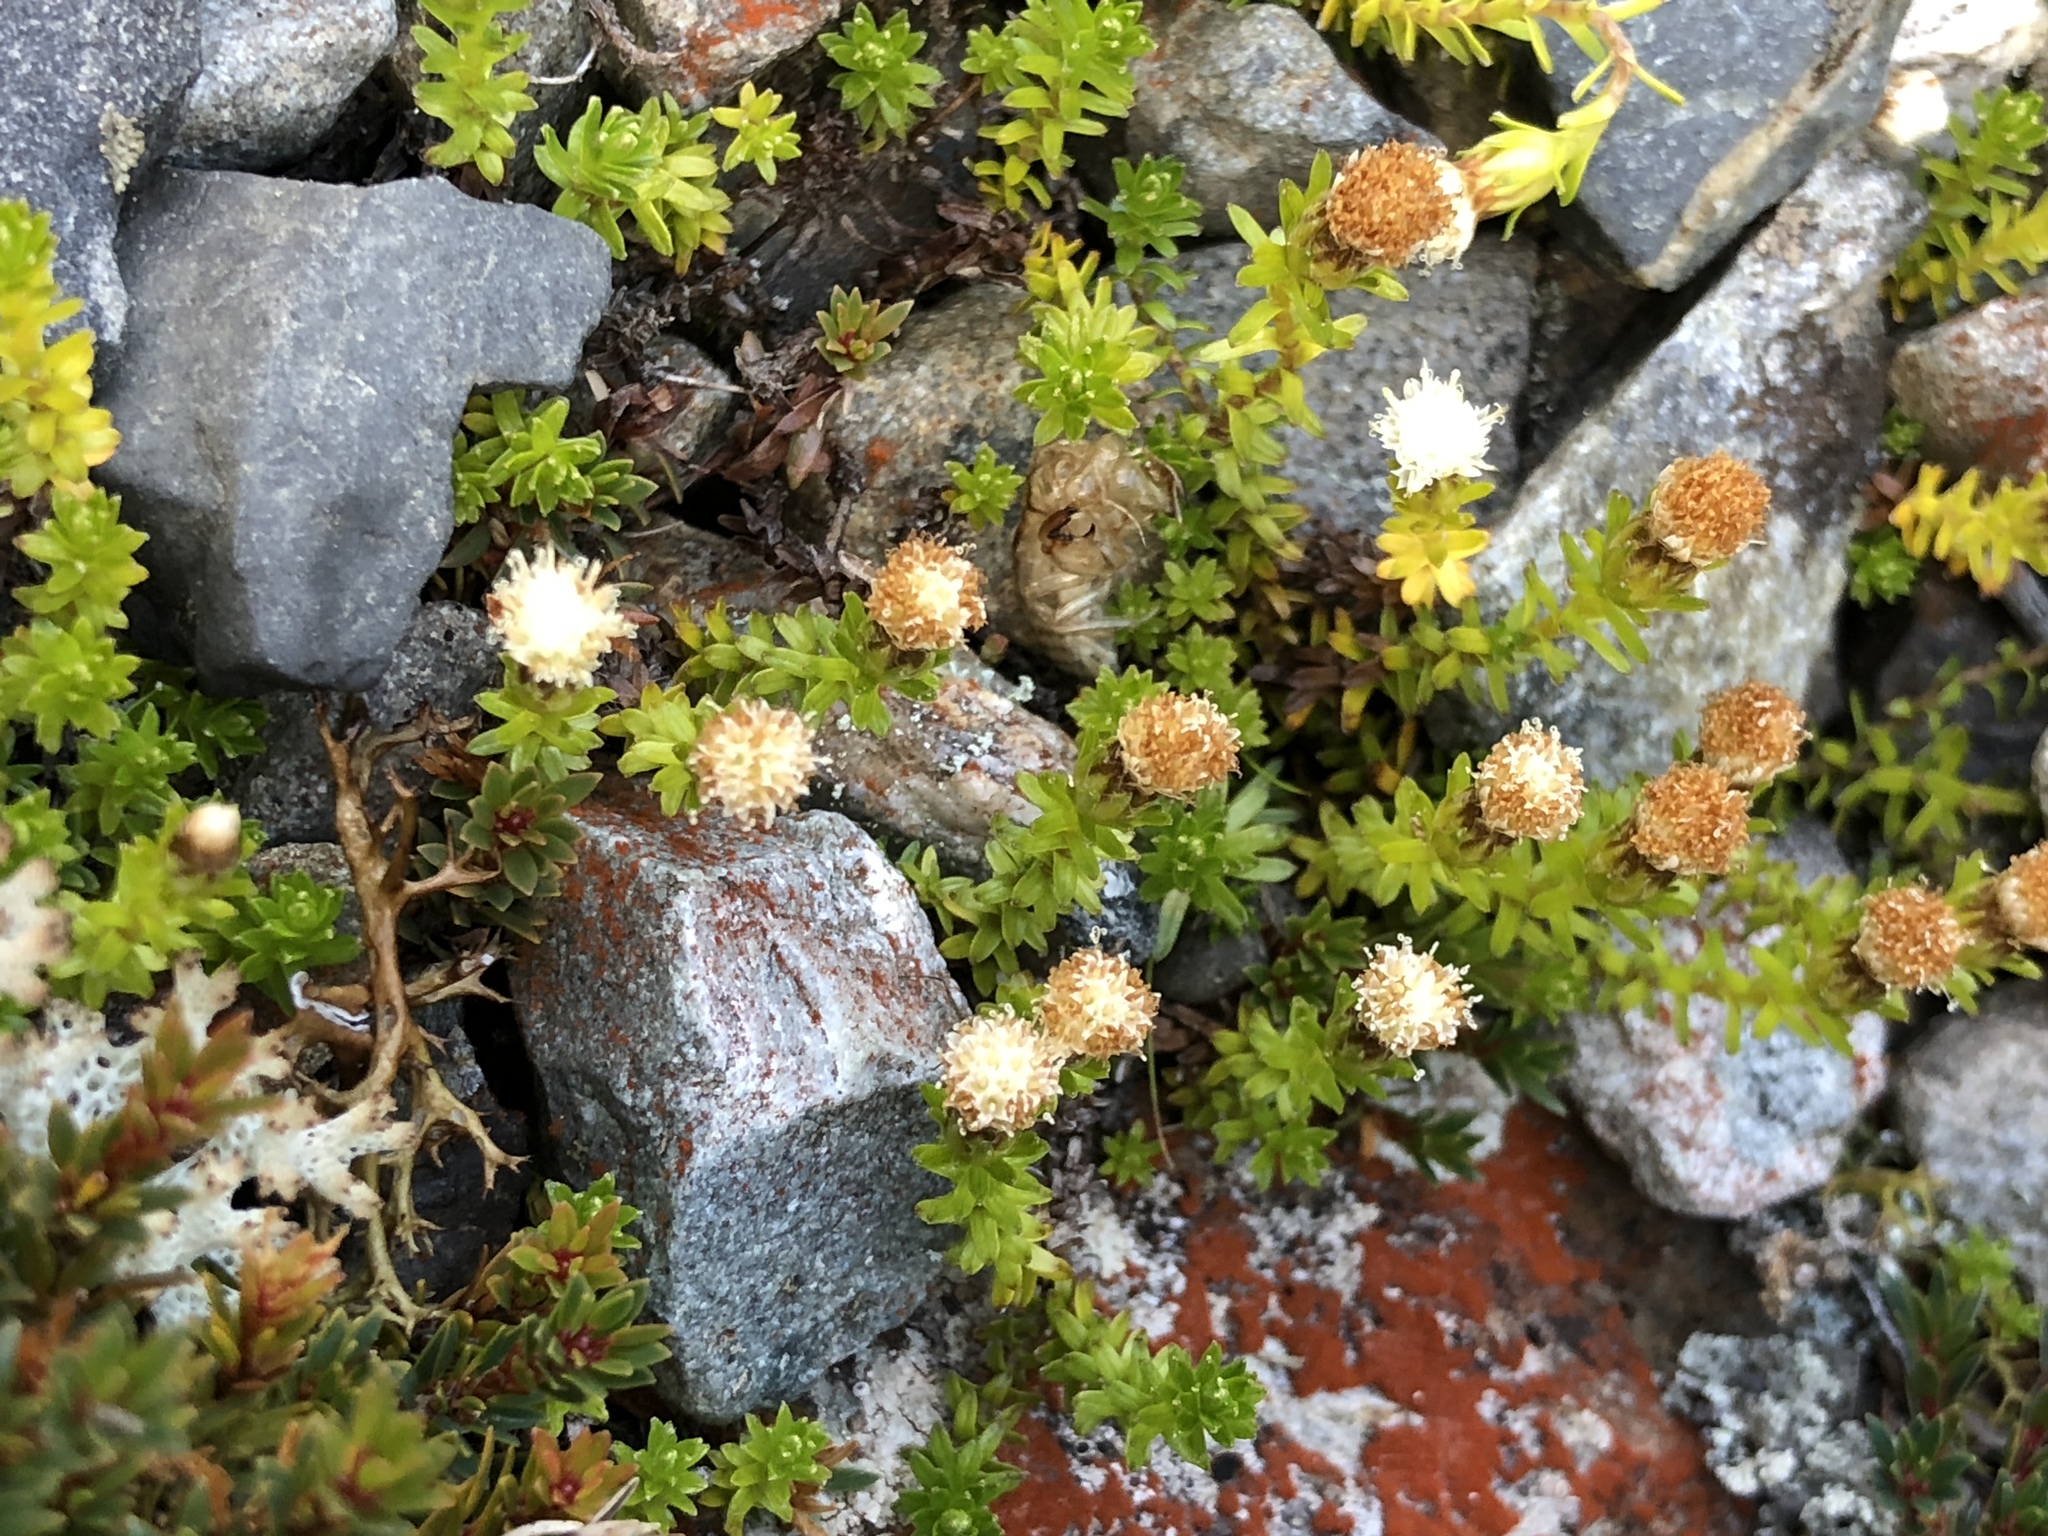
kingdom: Plantae
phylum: Tracheophyta
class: Magnoliopsida
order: Asterales
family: Asteraceae
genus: Raoulia
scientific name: Raoulia glabra
